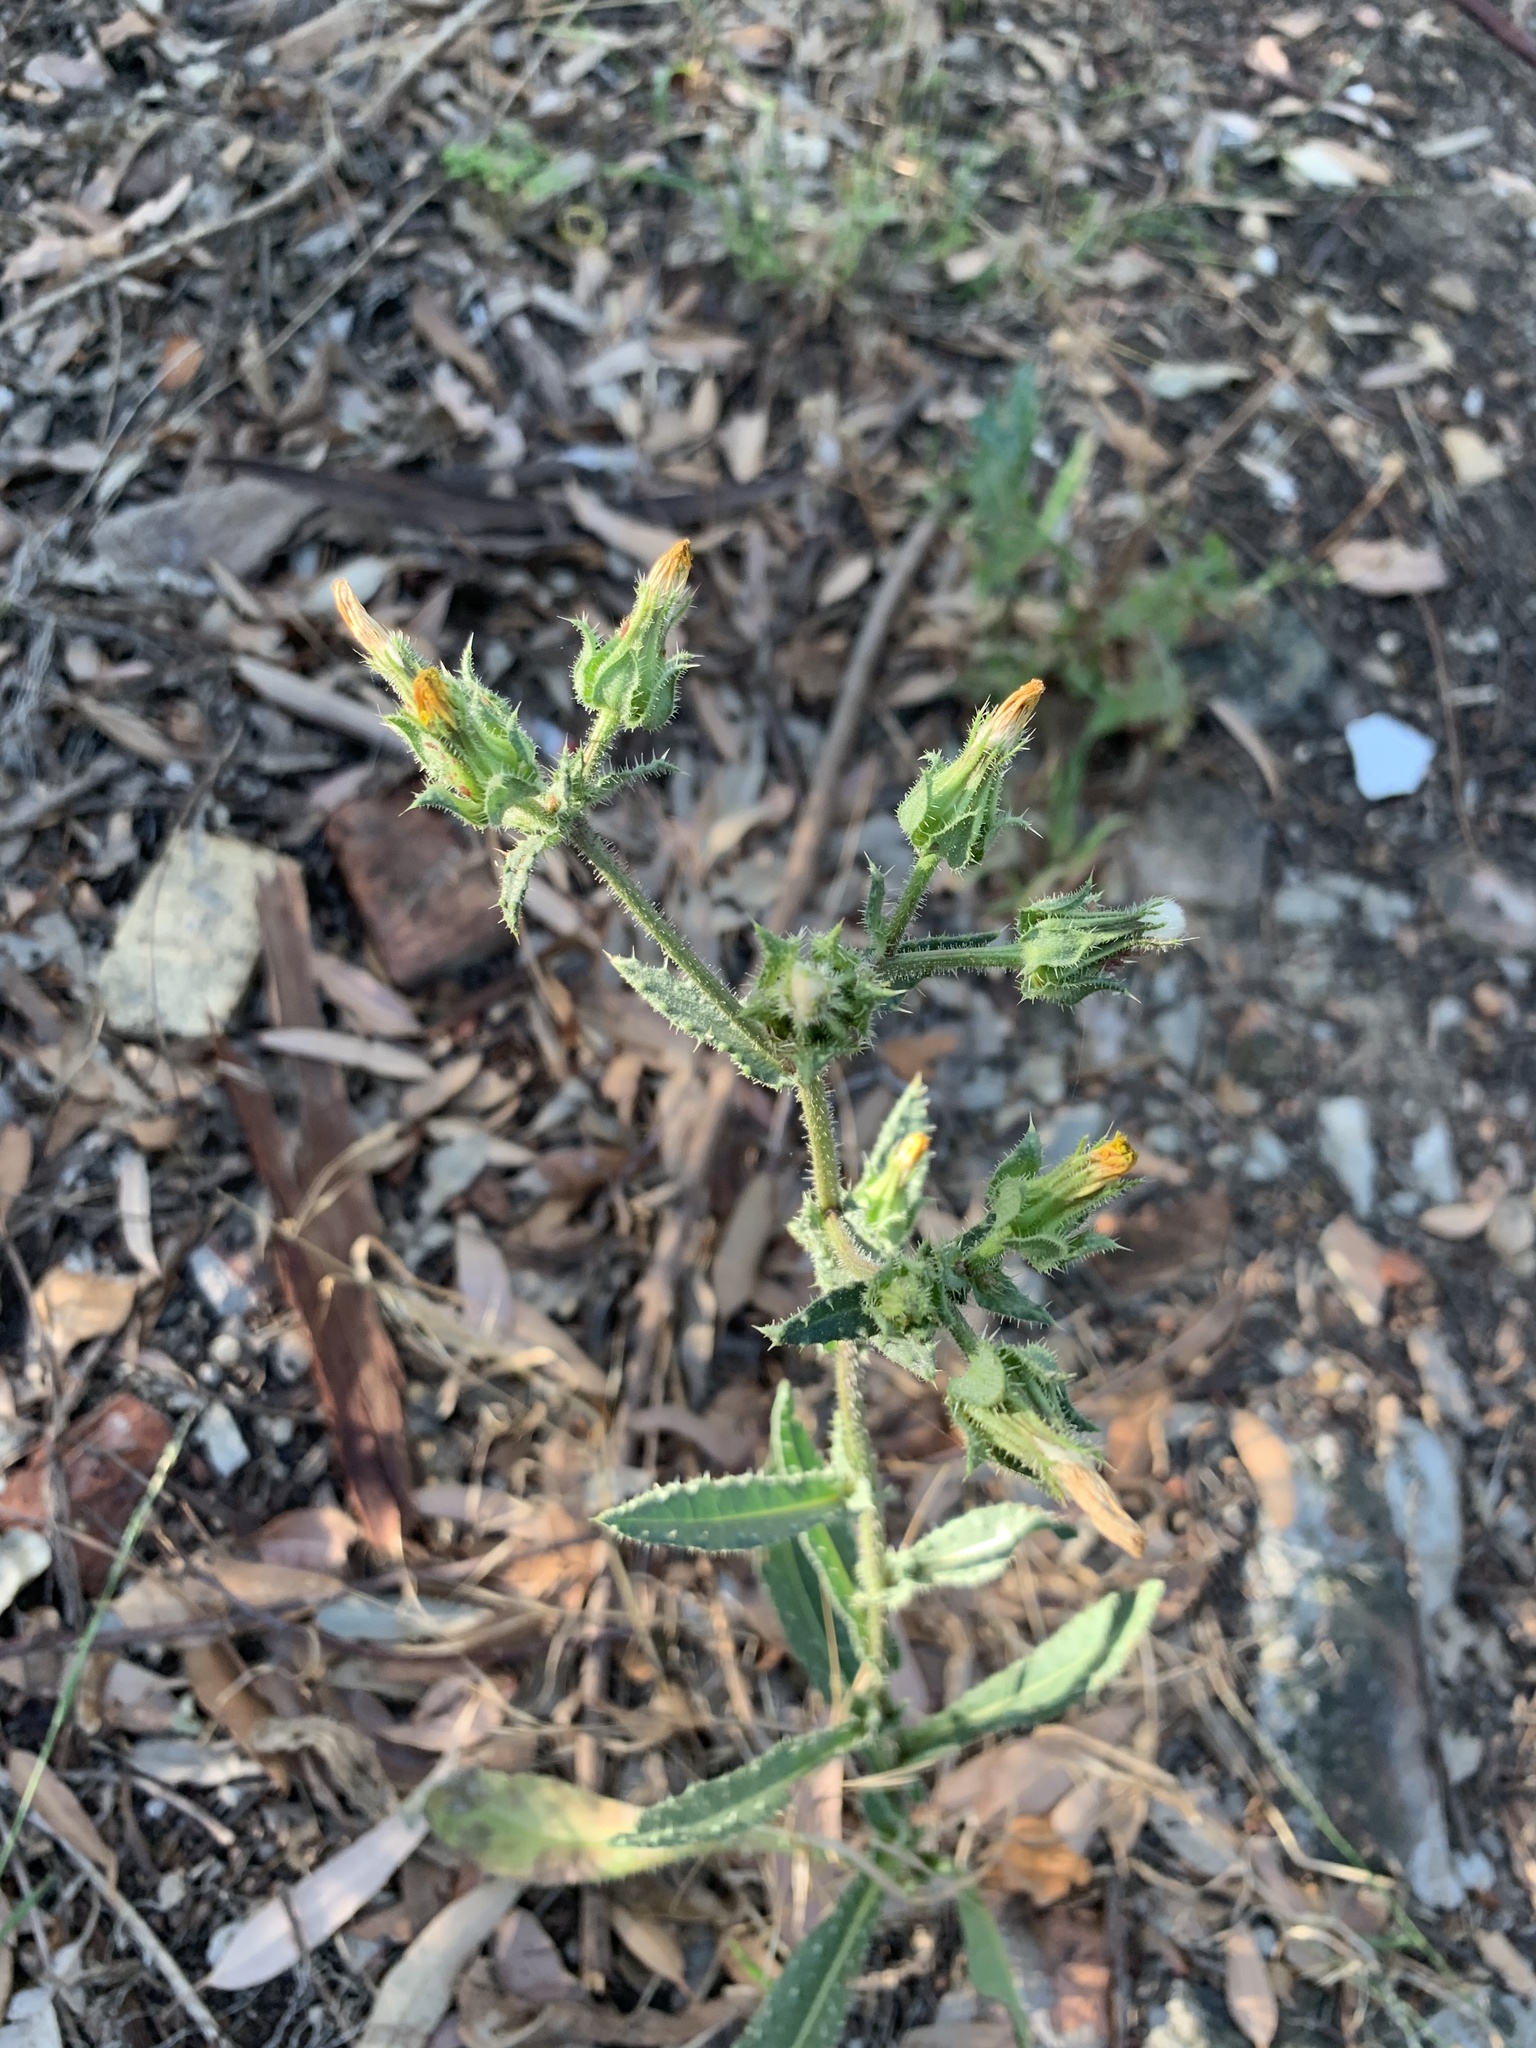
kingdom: Plantae
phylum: Tracheophyta
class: Magnoliopsida
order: Asterales
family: Asteraceae
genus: Helminthotheca
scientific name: Helminthotheca echioides
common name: Ox-tongue
